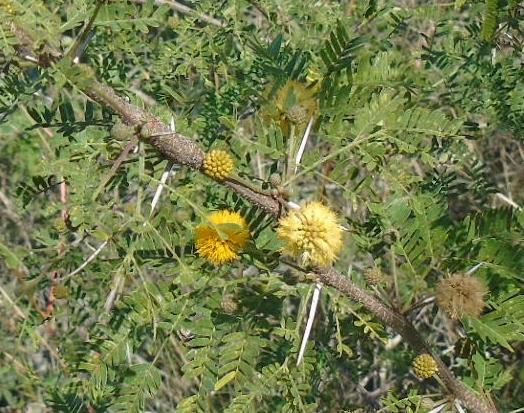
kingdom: Plantae
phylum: Tracheophyta
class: Magnoliopsida
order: Fabales
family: Fabaceae
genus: Vachellia
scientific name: Vachellia farnesiana
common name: Sweet acacia
